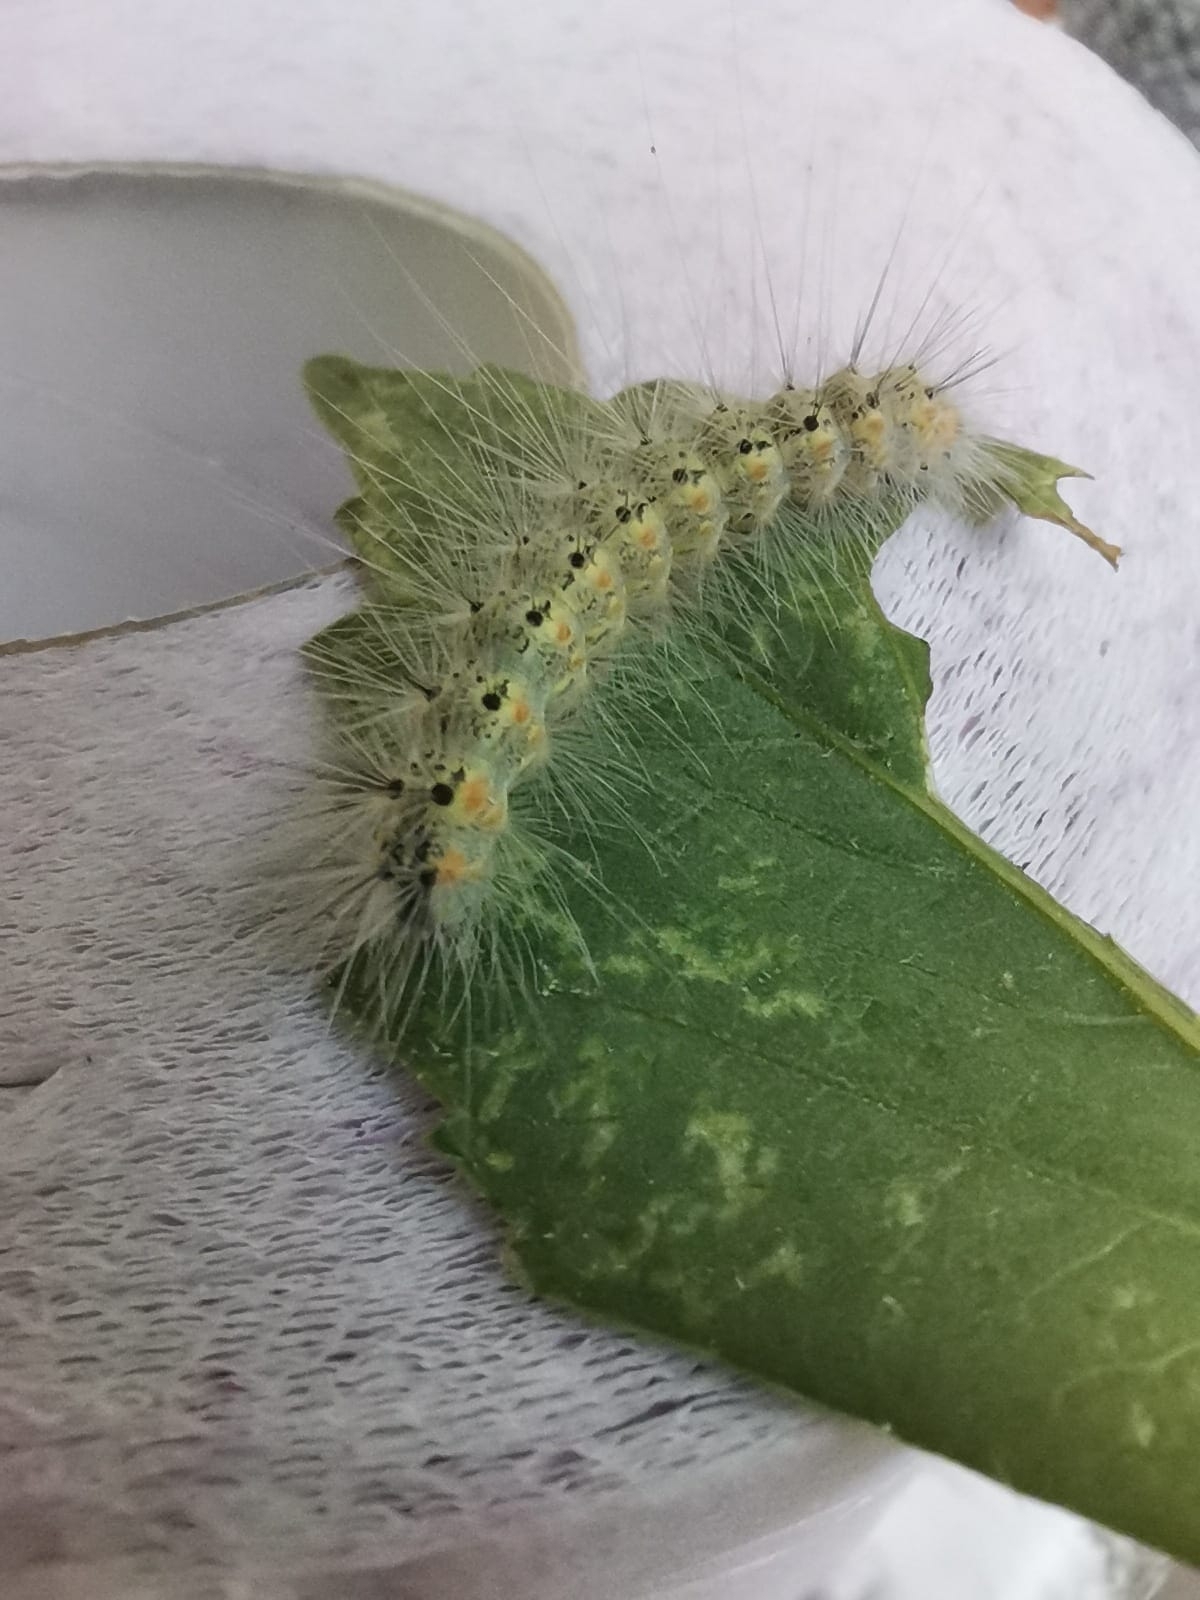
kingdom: Animalia
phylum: Arthropoda
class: Insecta
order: Lepidoptera
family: Erebidae
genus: Hyphantria
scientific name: Hyphantria cunea
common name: American white moth
